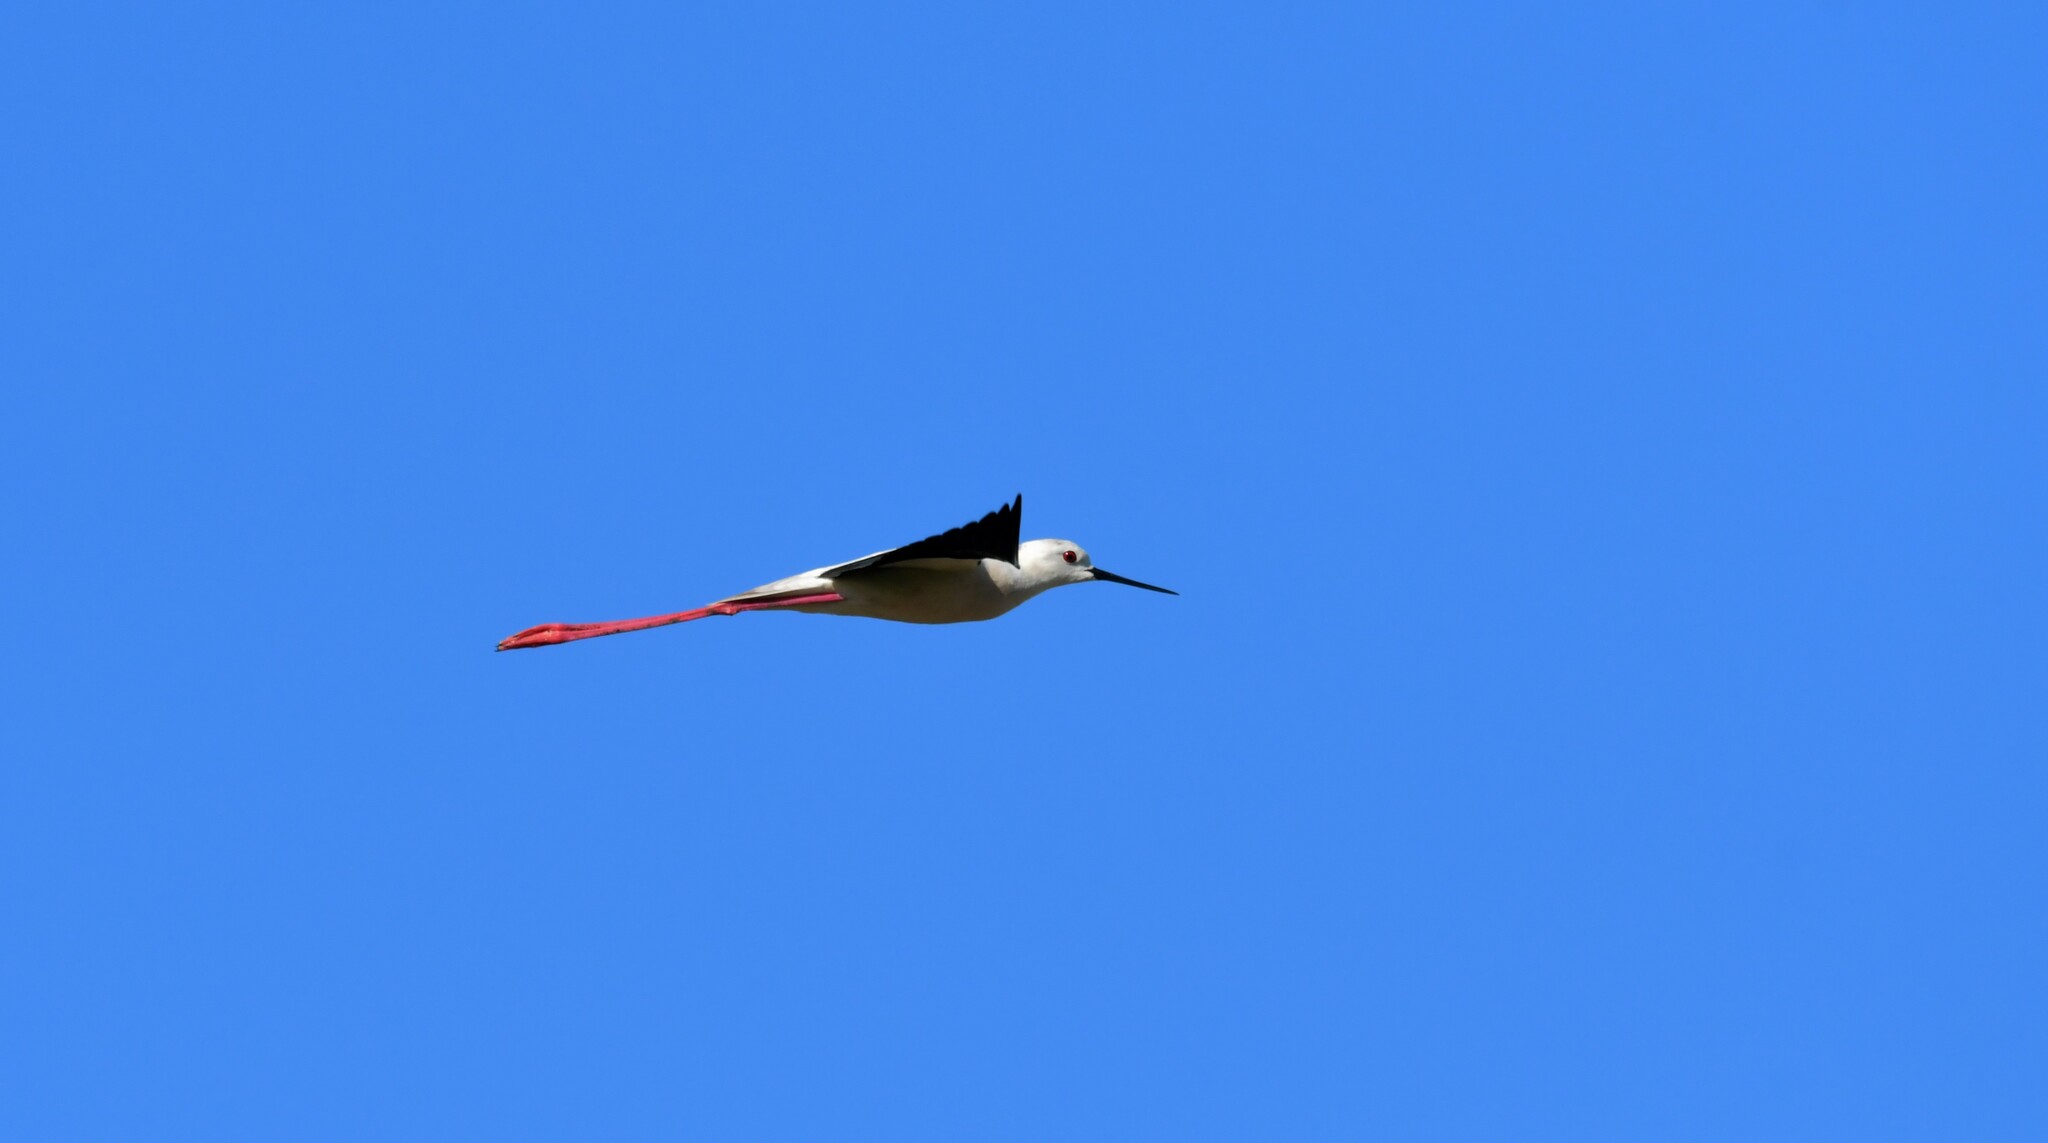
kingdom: Animalia
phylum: Chordata
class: Aves
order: Charadriiformes
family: Recurvirostridae
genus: Himantopus
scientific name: Himantopus himantopus
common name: Black-winged stilt
